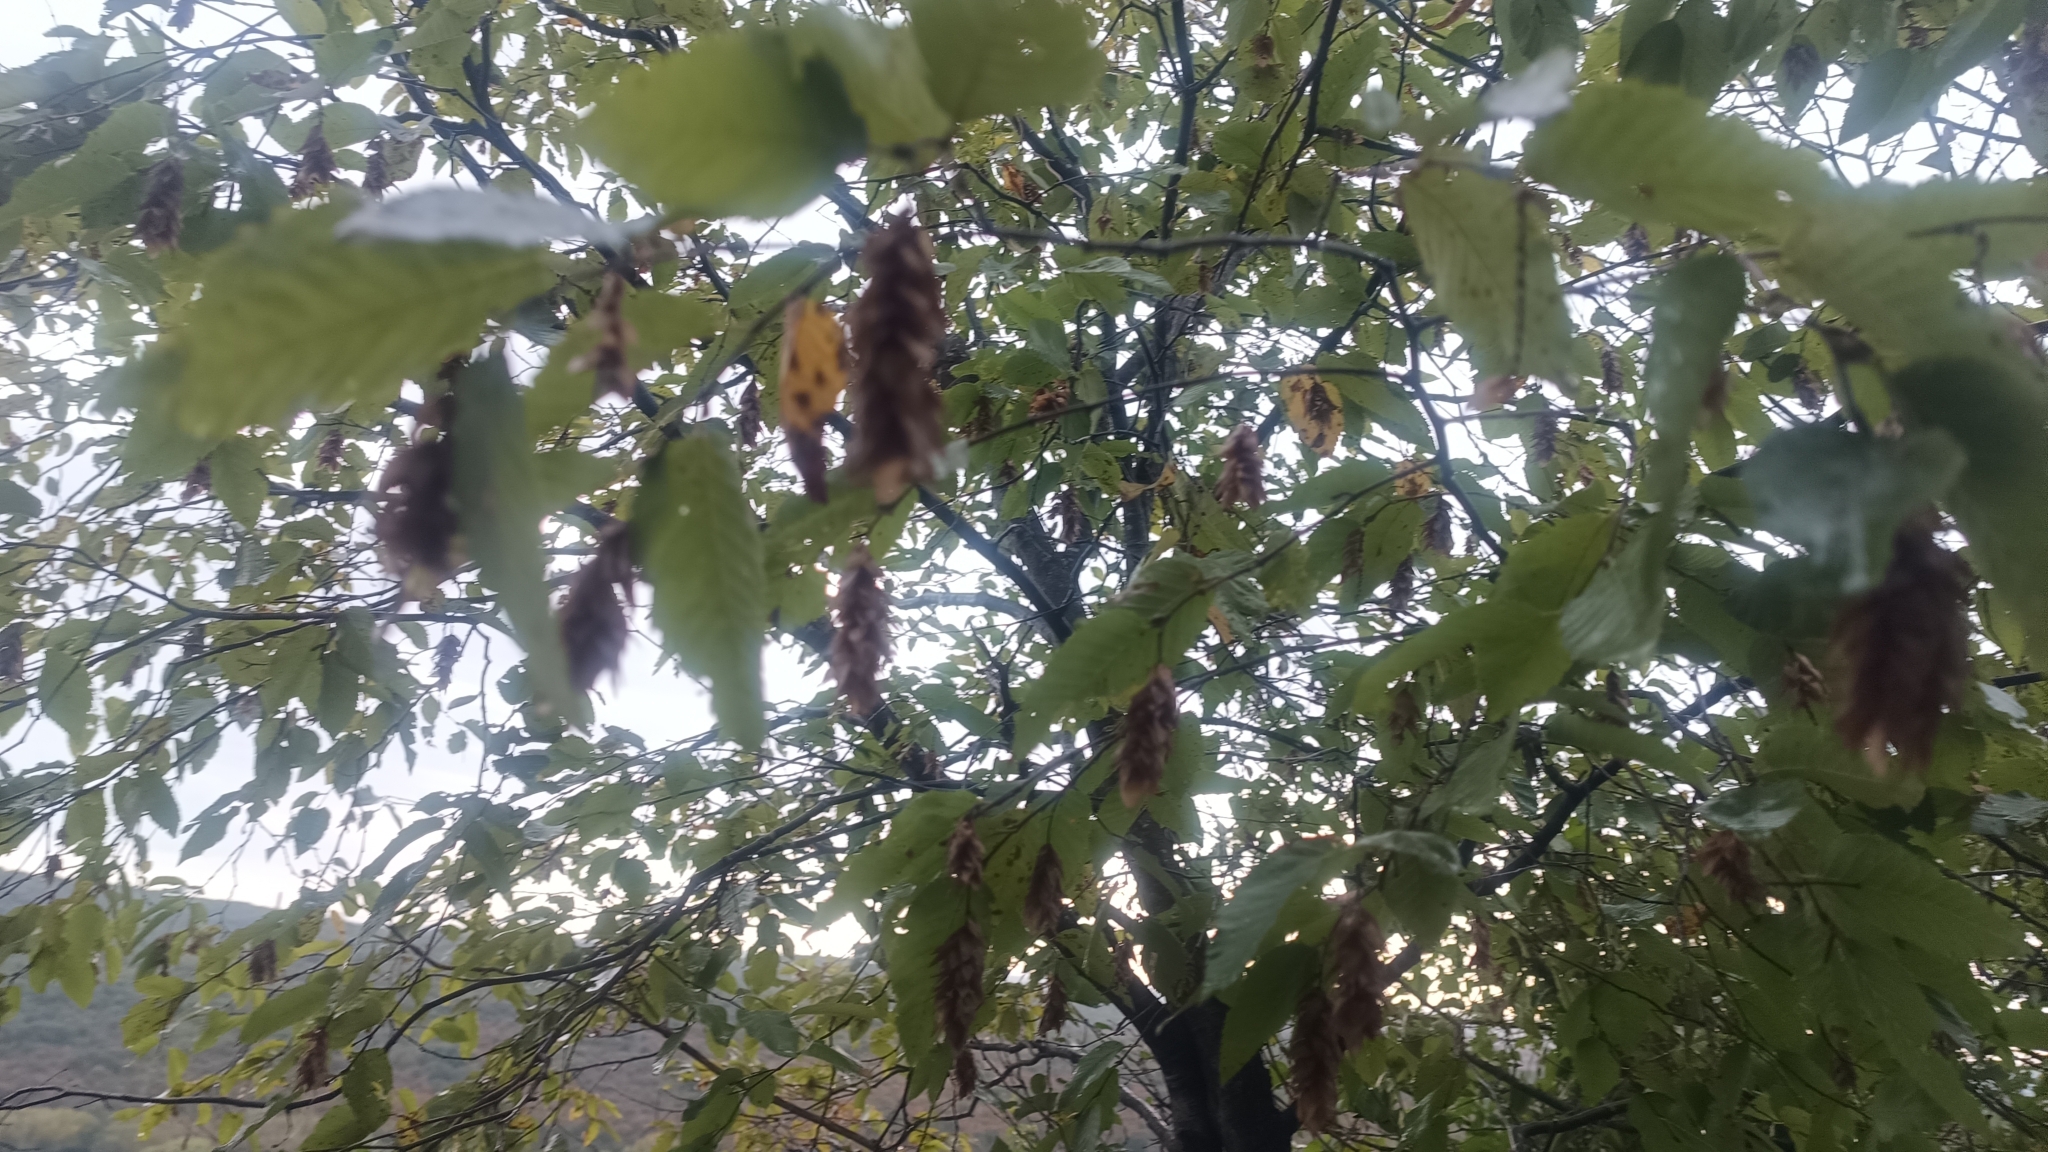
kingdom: Plantae
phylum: Tracheophyta
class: Magnoliopsida
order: Fagales
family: Betulaceae
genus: Ostrya
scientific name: Ostrya carpinifolia
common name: European hop-hornbeam
